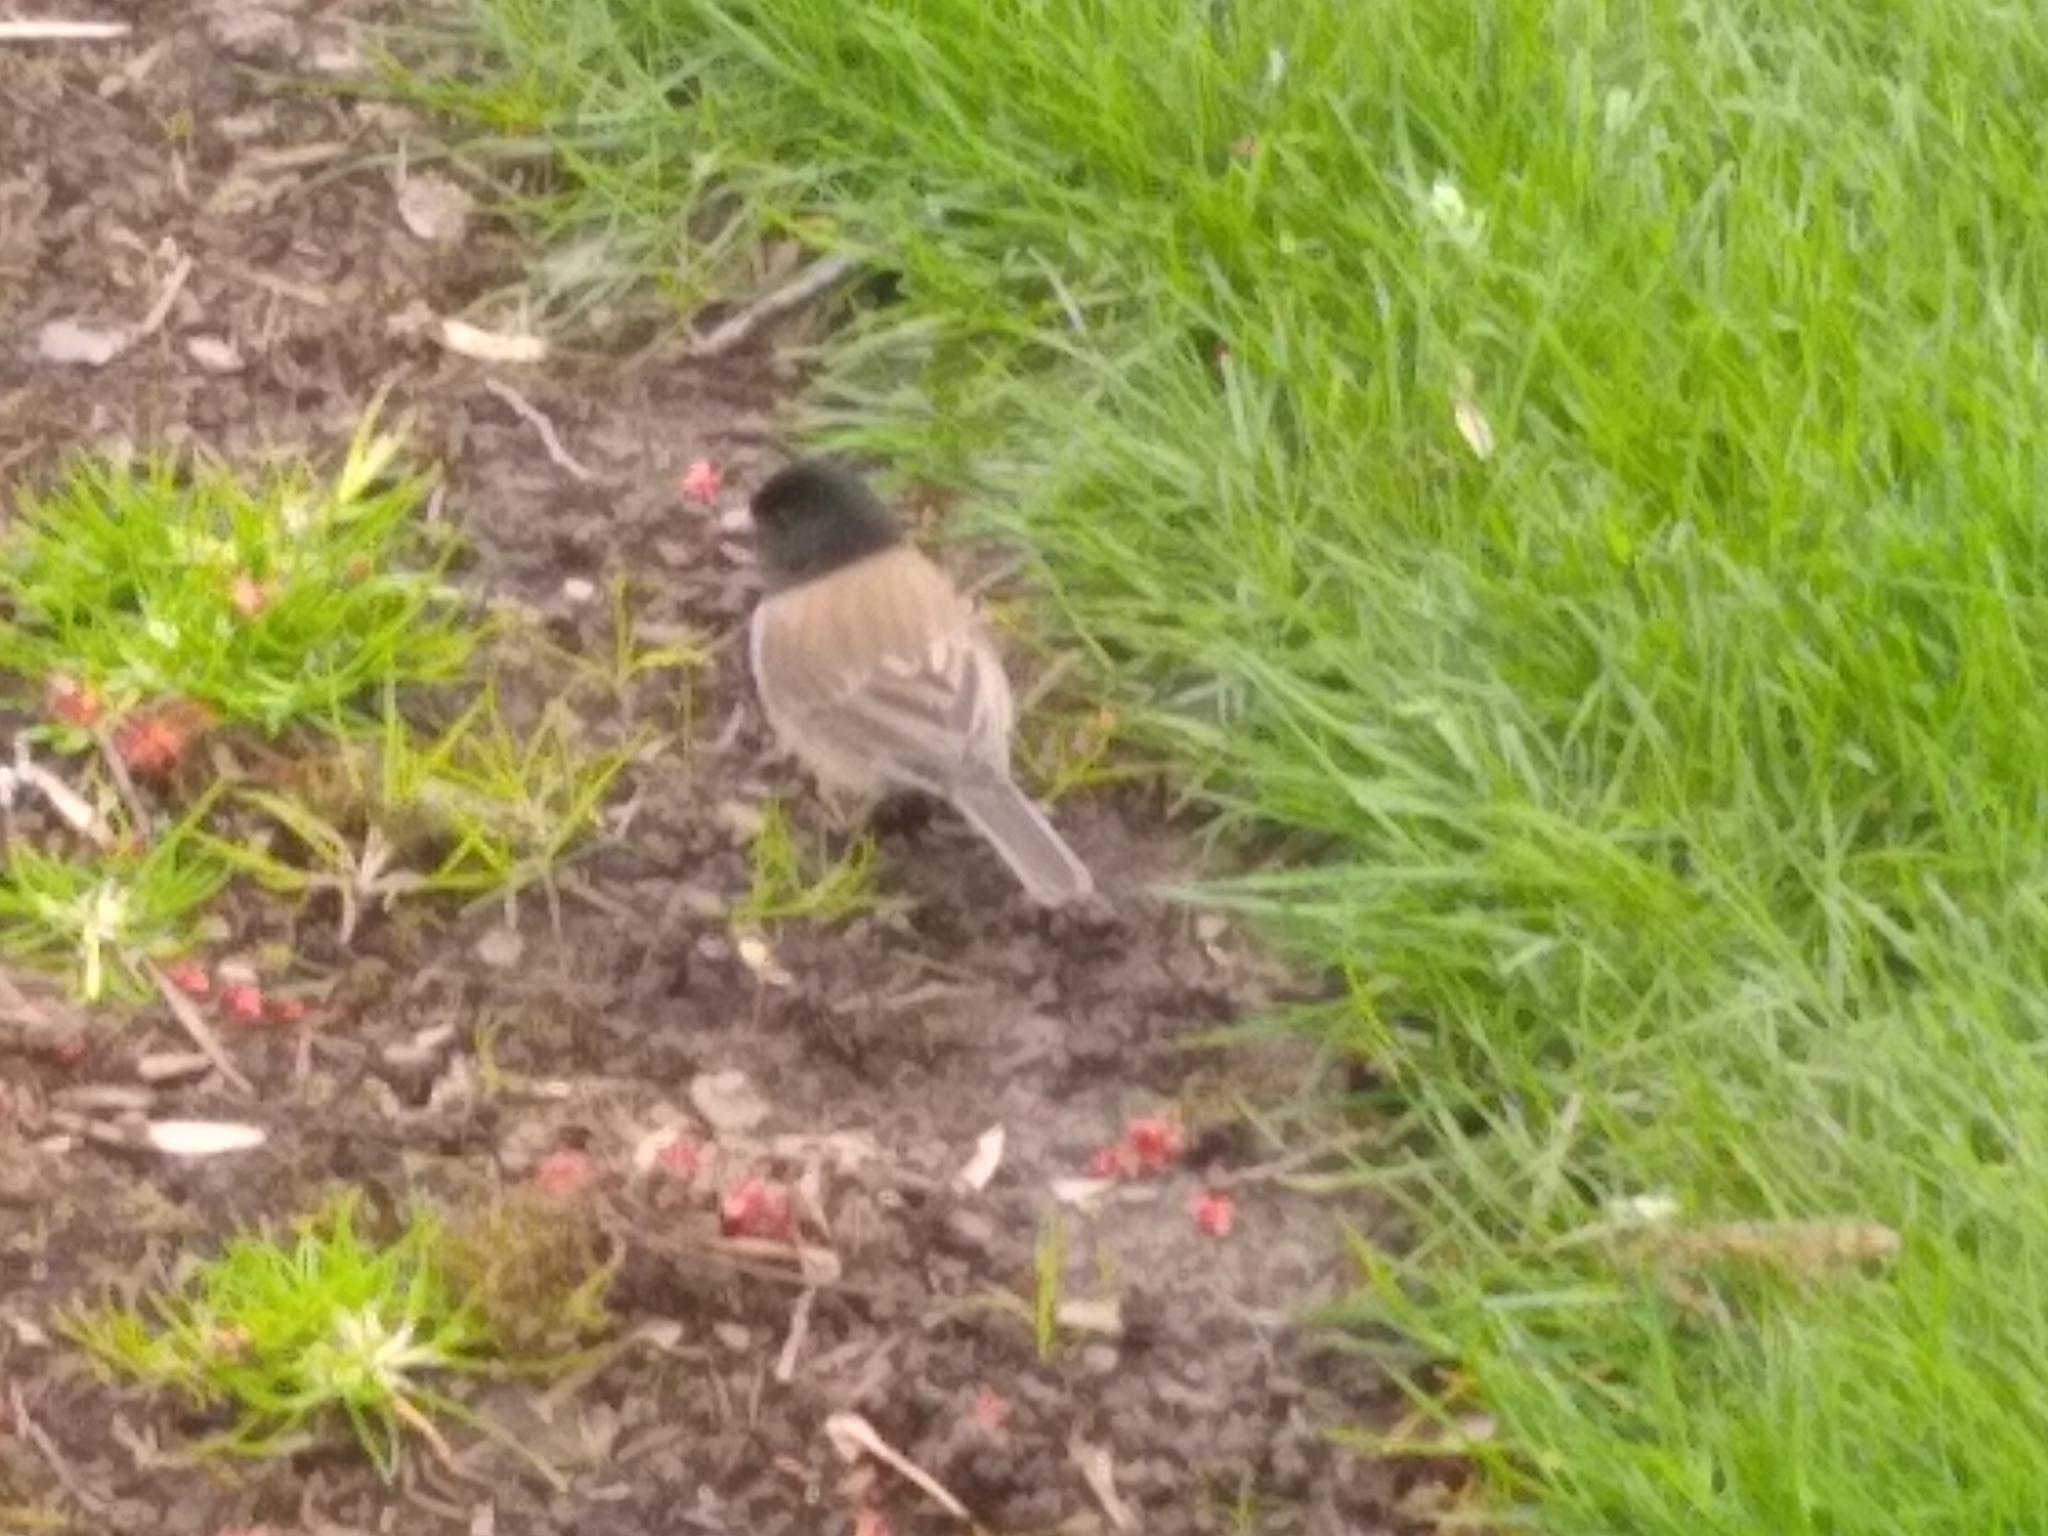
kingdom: Animalia
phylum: Chordata
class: Aves
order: Passeriformes
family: Passerellidae
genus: Junco
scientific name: Junco hyemalis
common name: Dark-eyed junco
